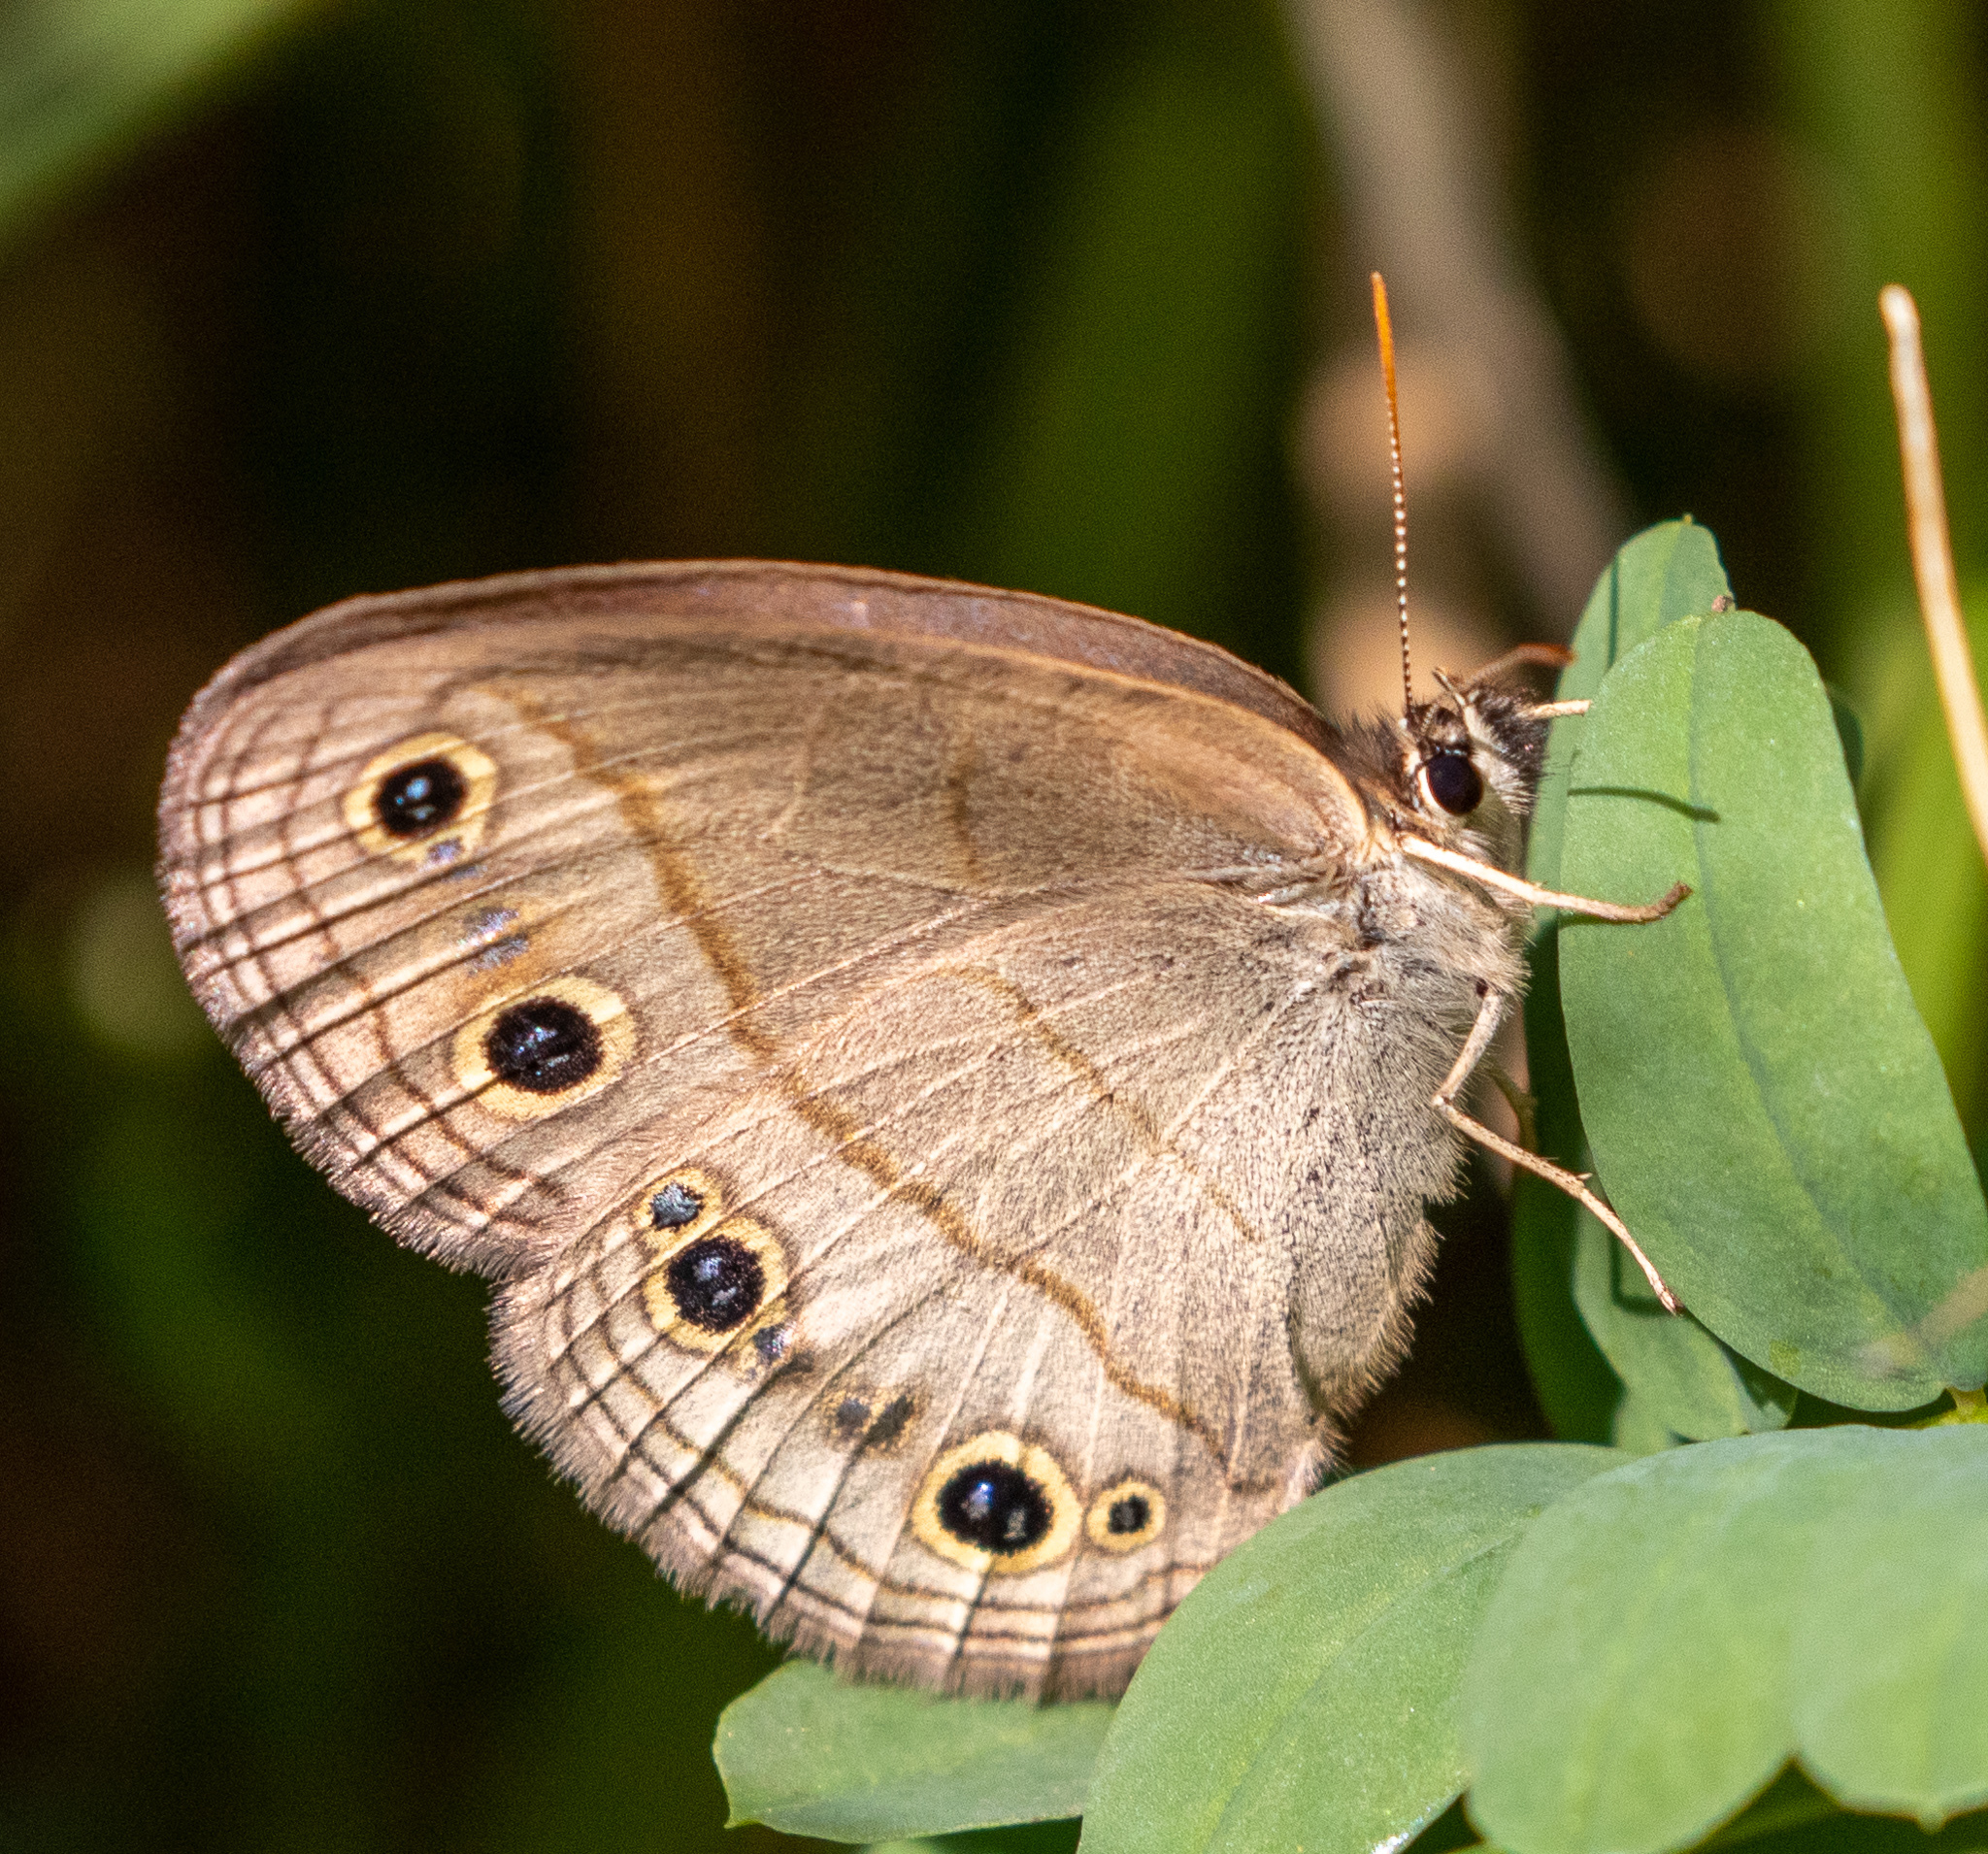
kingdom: Animalia
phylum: Arthropoda
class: Insecta
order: Lepidoptera
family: Nymphalidae
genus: Euptychia
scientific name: Euptychia cymela
